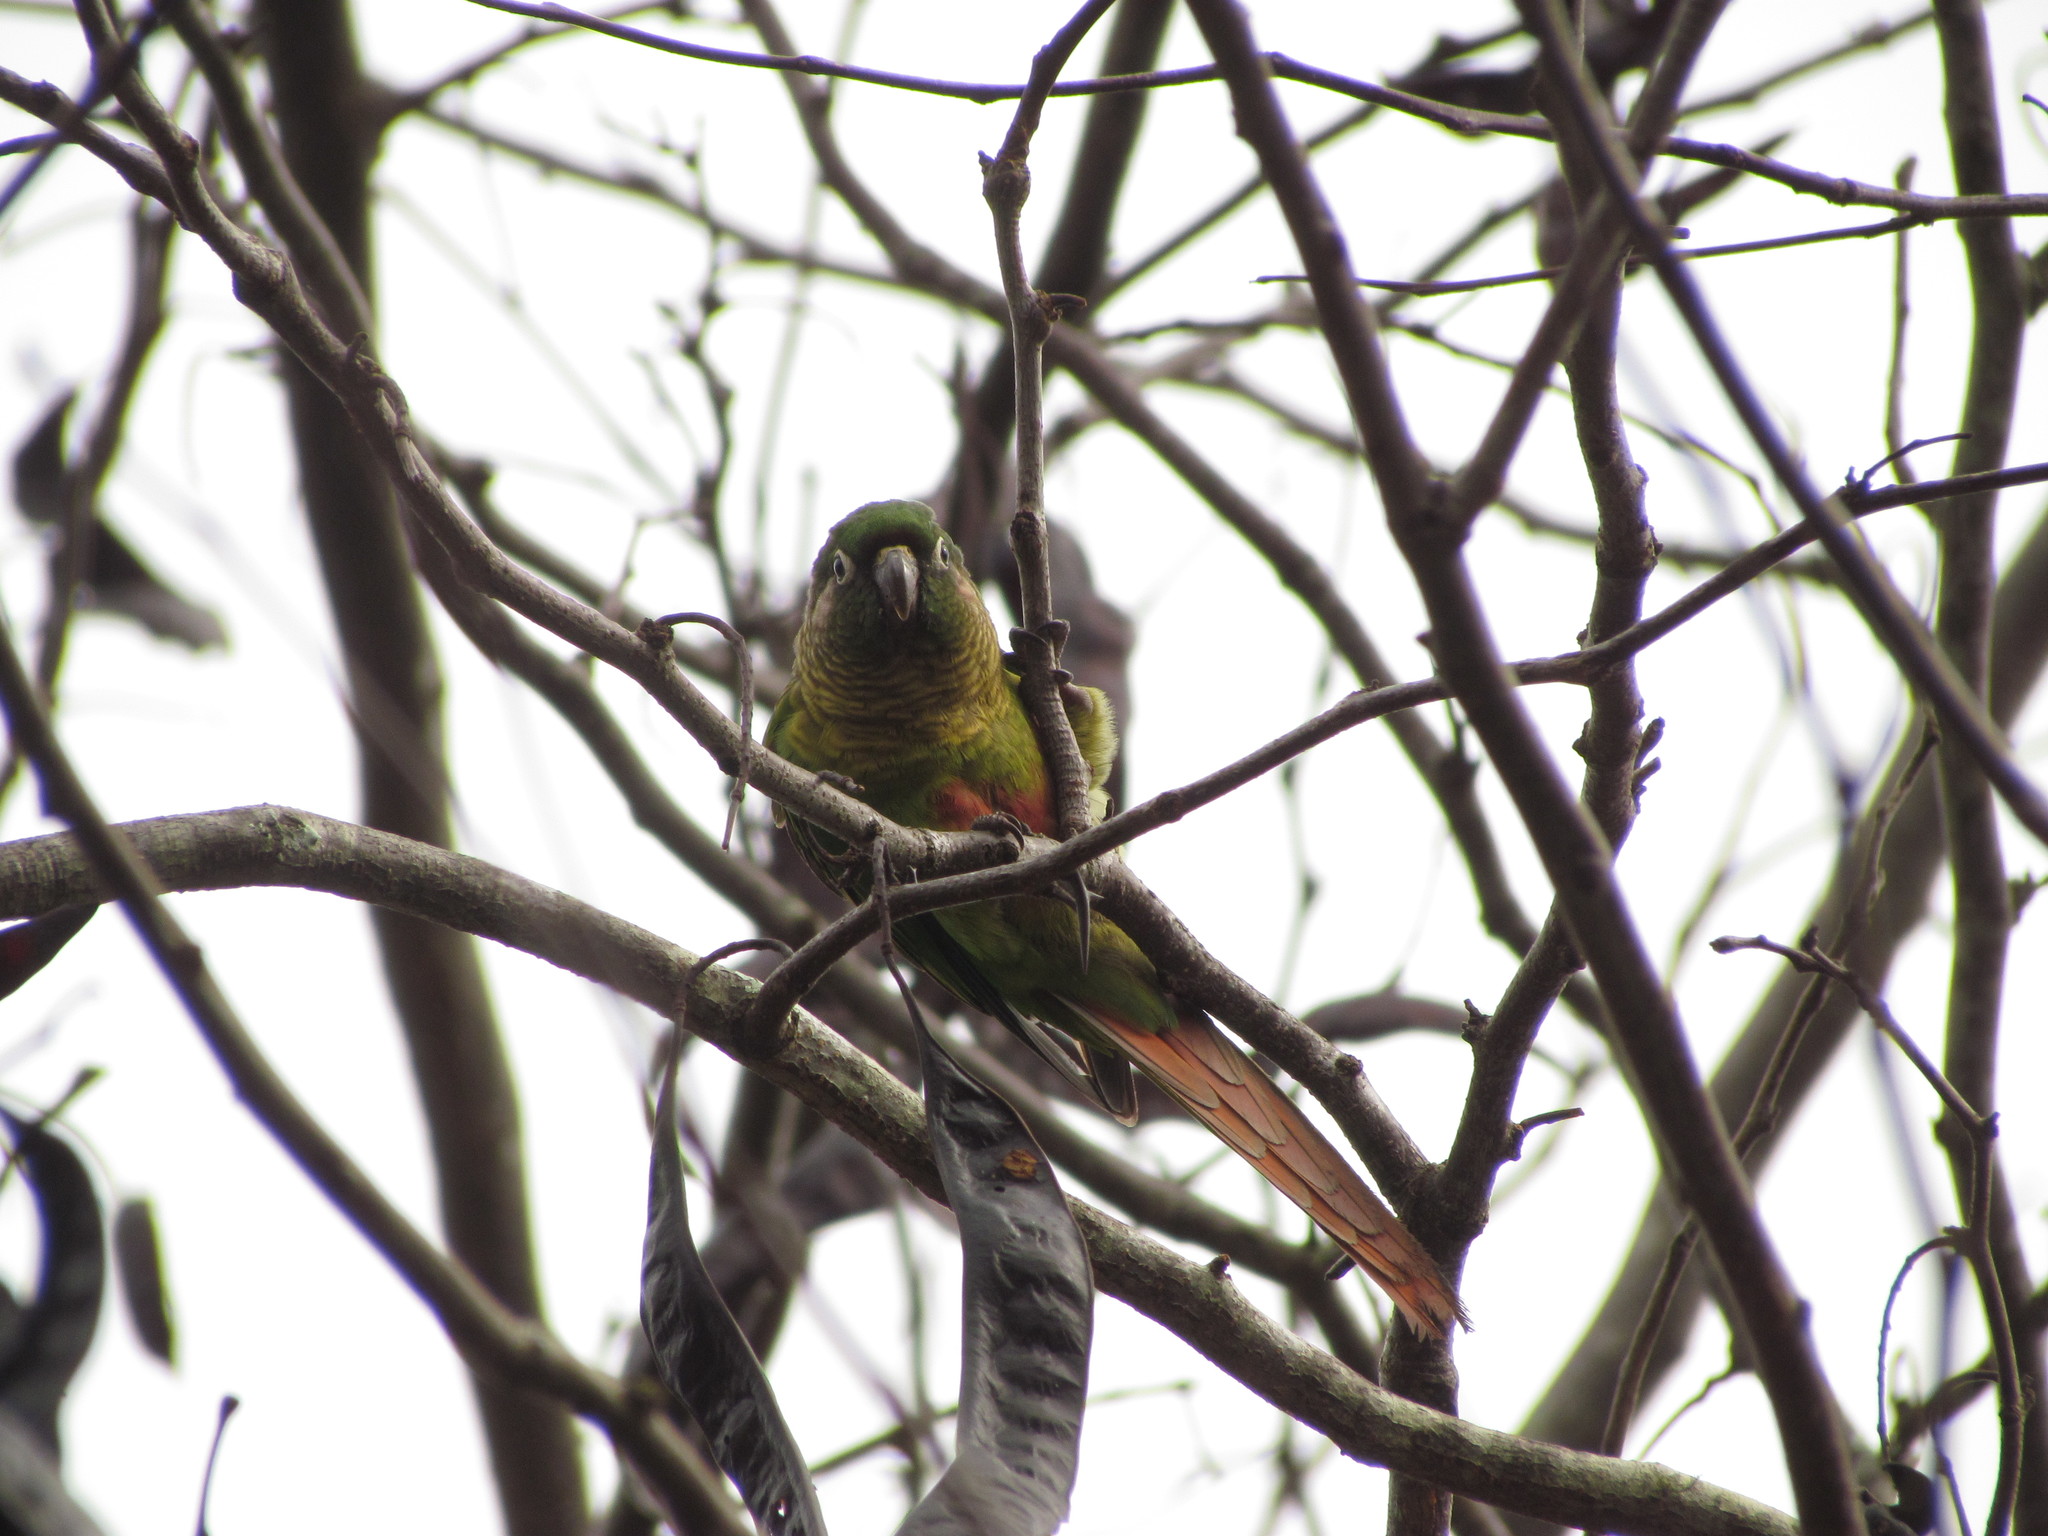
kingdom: Animalia
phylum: Chordata
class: Aves
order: Psittaciformes
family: Psittacidae
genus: Pyrrhura
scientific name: Pyrrhura frontalis
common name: Maroon-bellied parakeet
